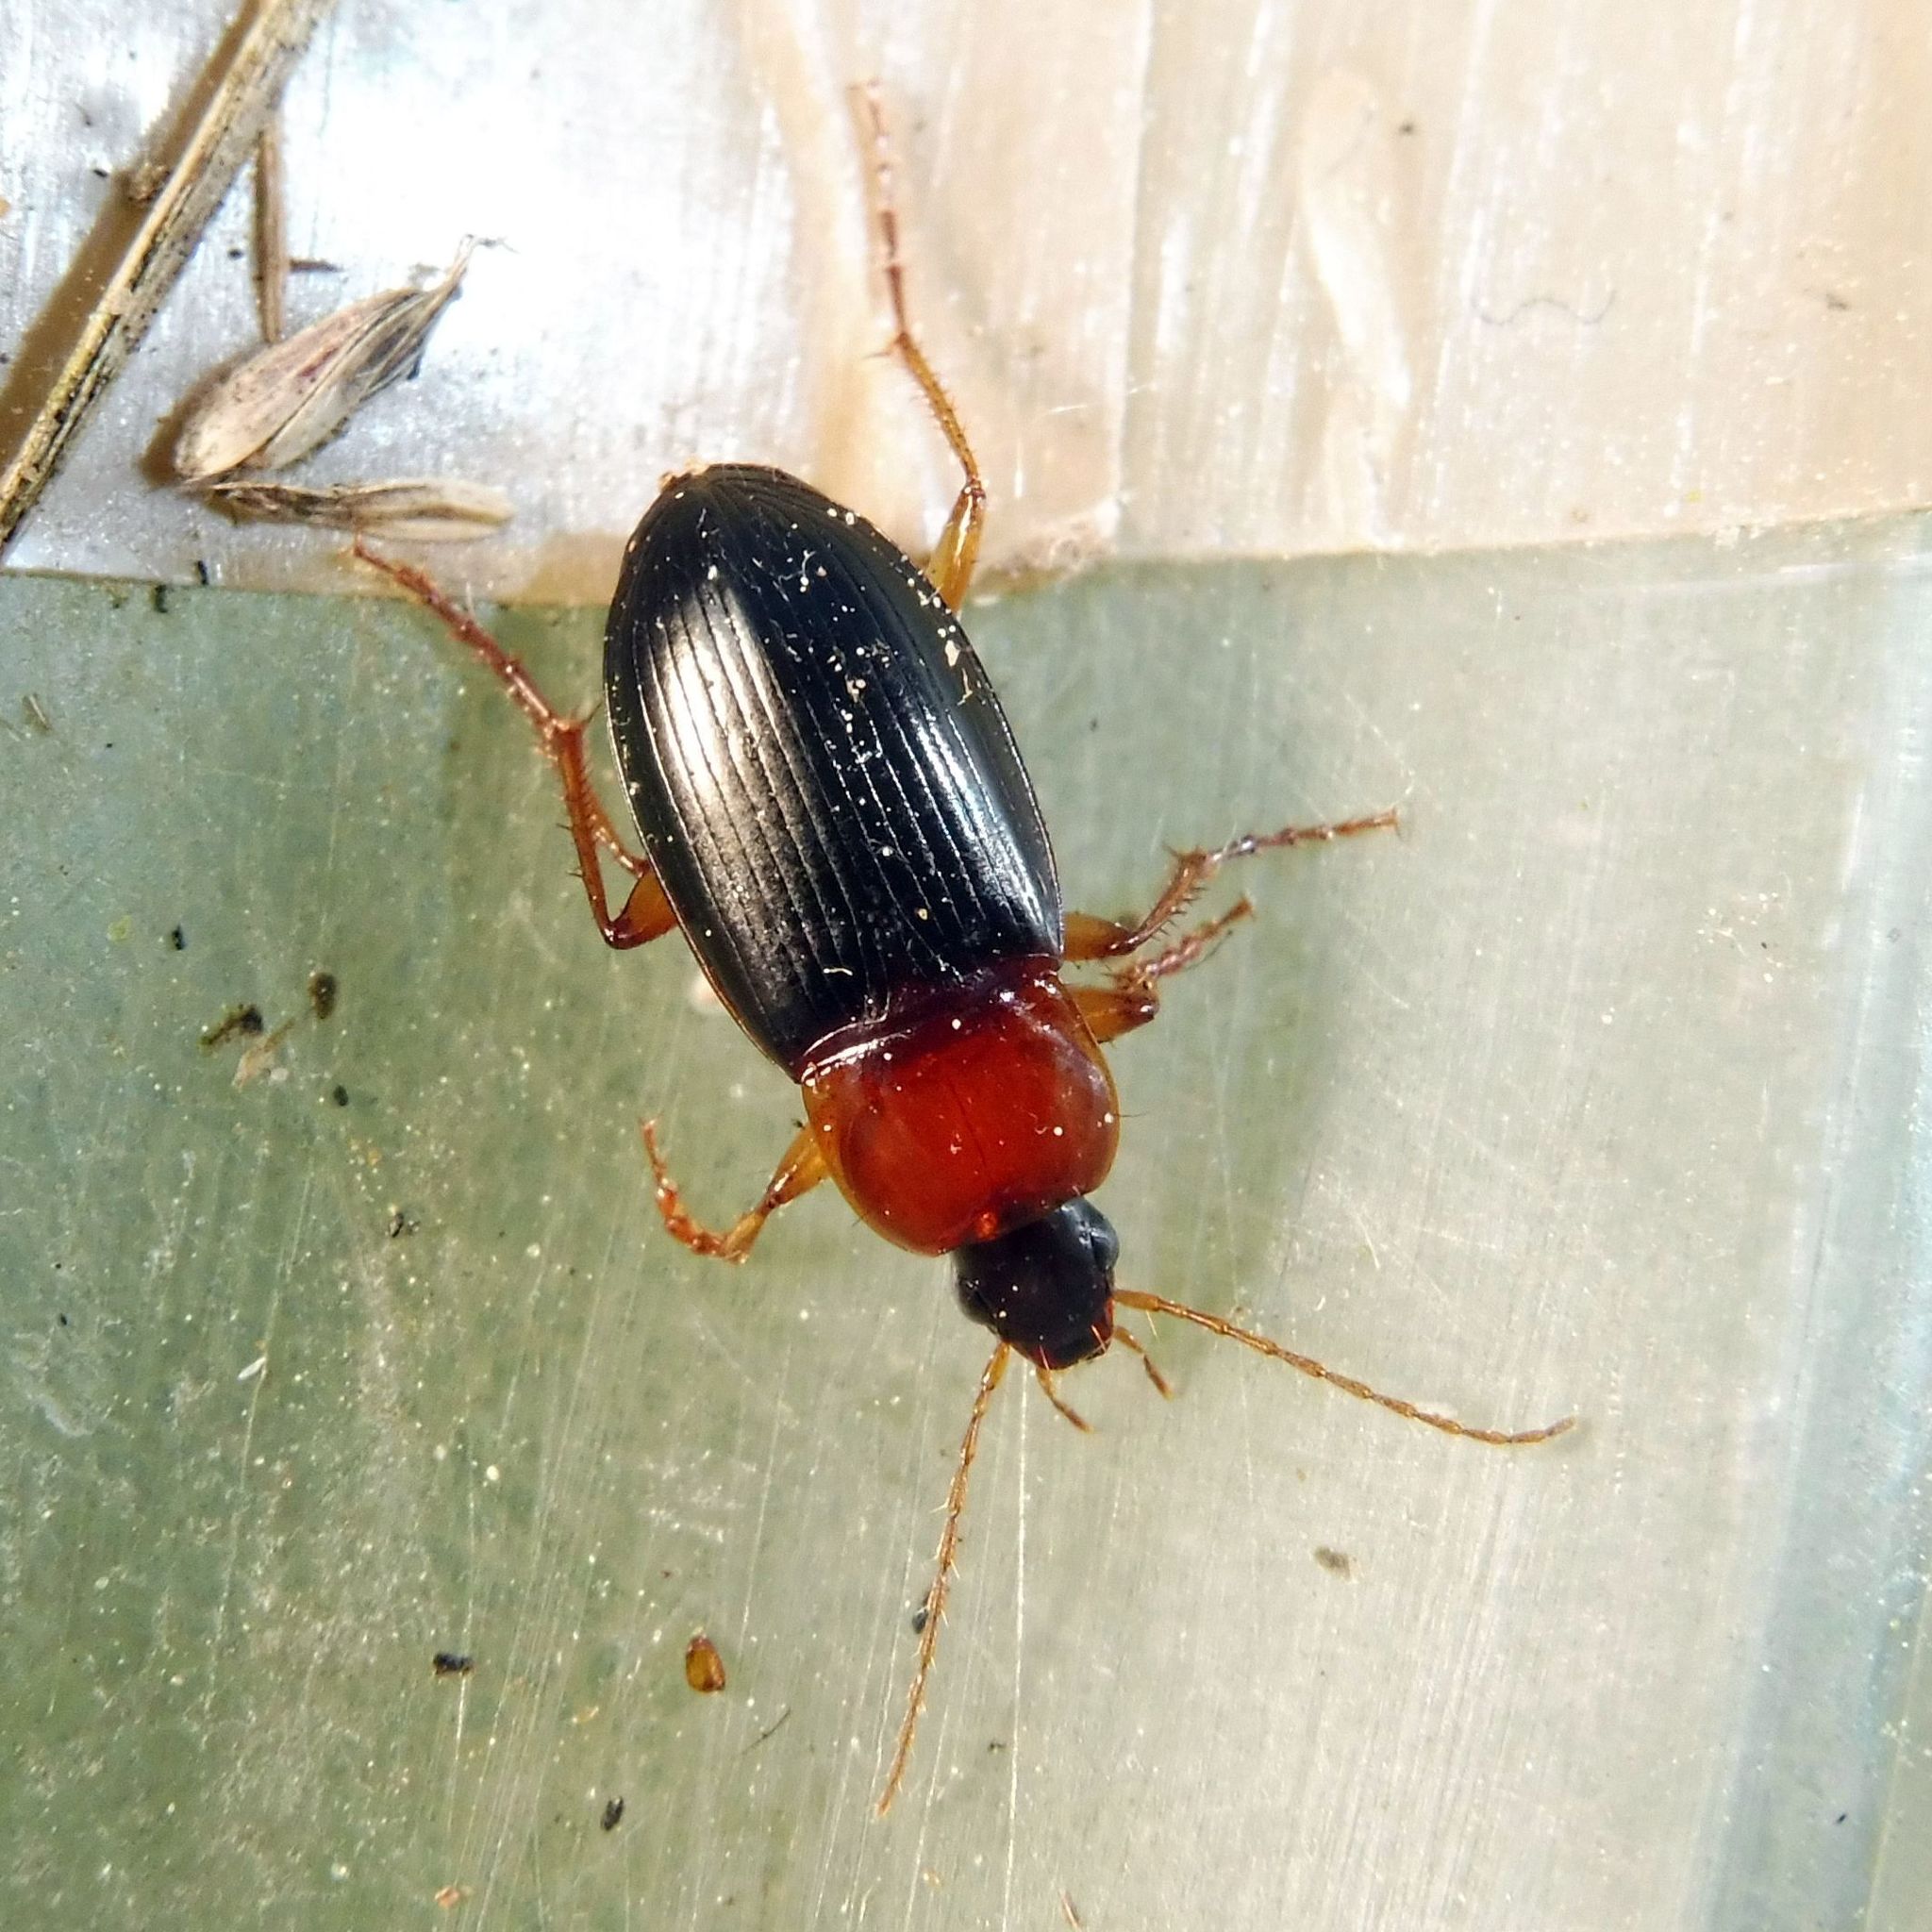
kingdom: Animalia
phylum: Arthropoda
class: Insecta
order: Coleoptera
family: Carabidae
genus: Calathus
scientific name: Calathus melanocephalus
